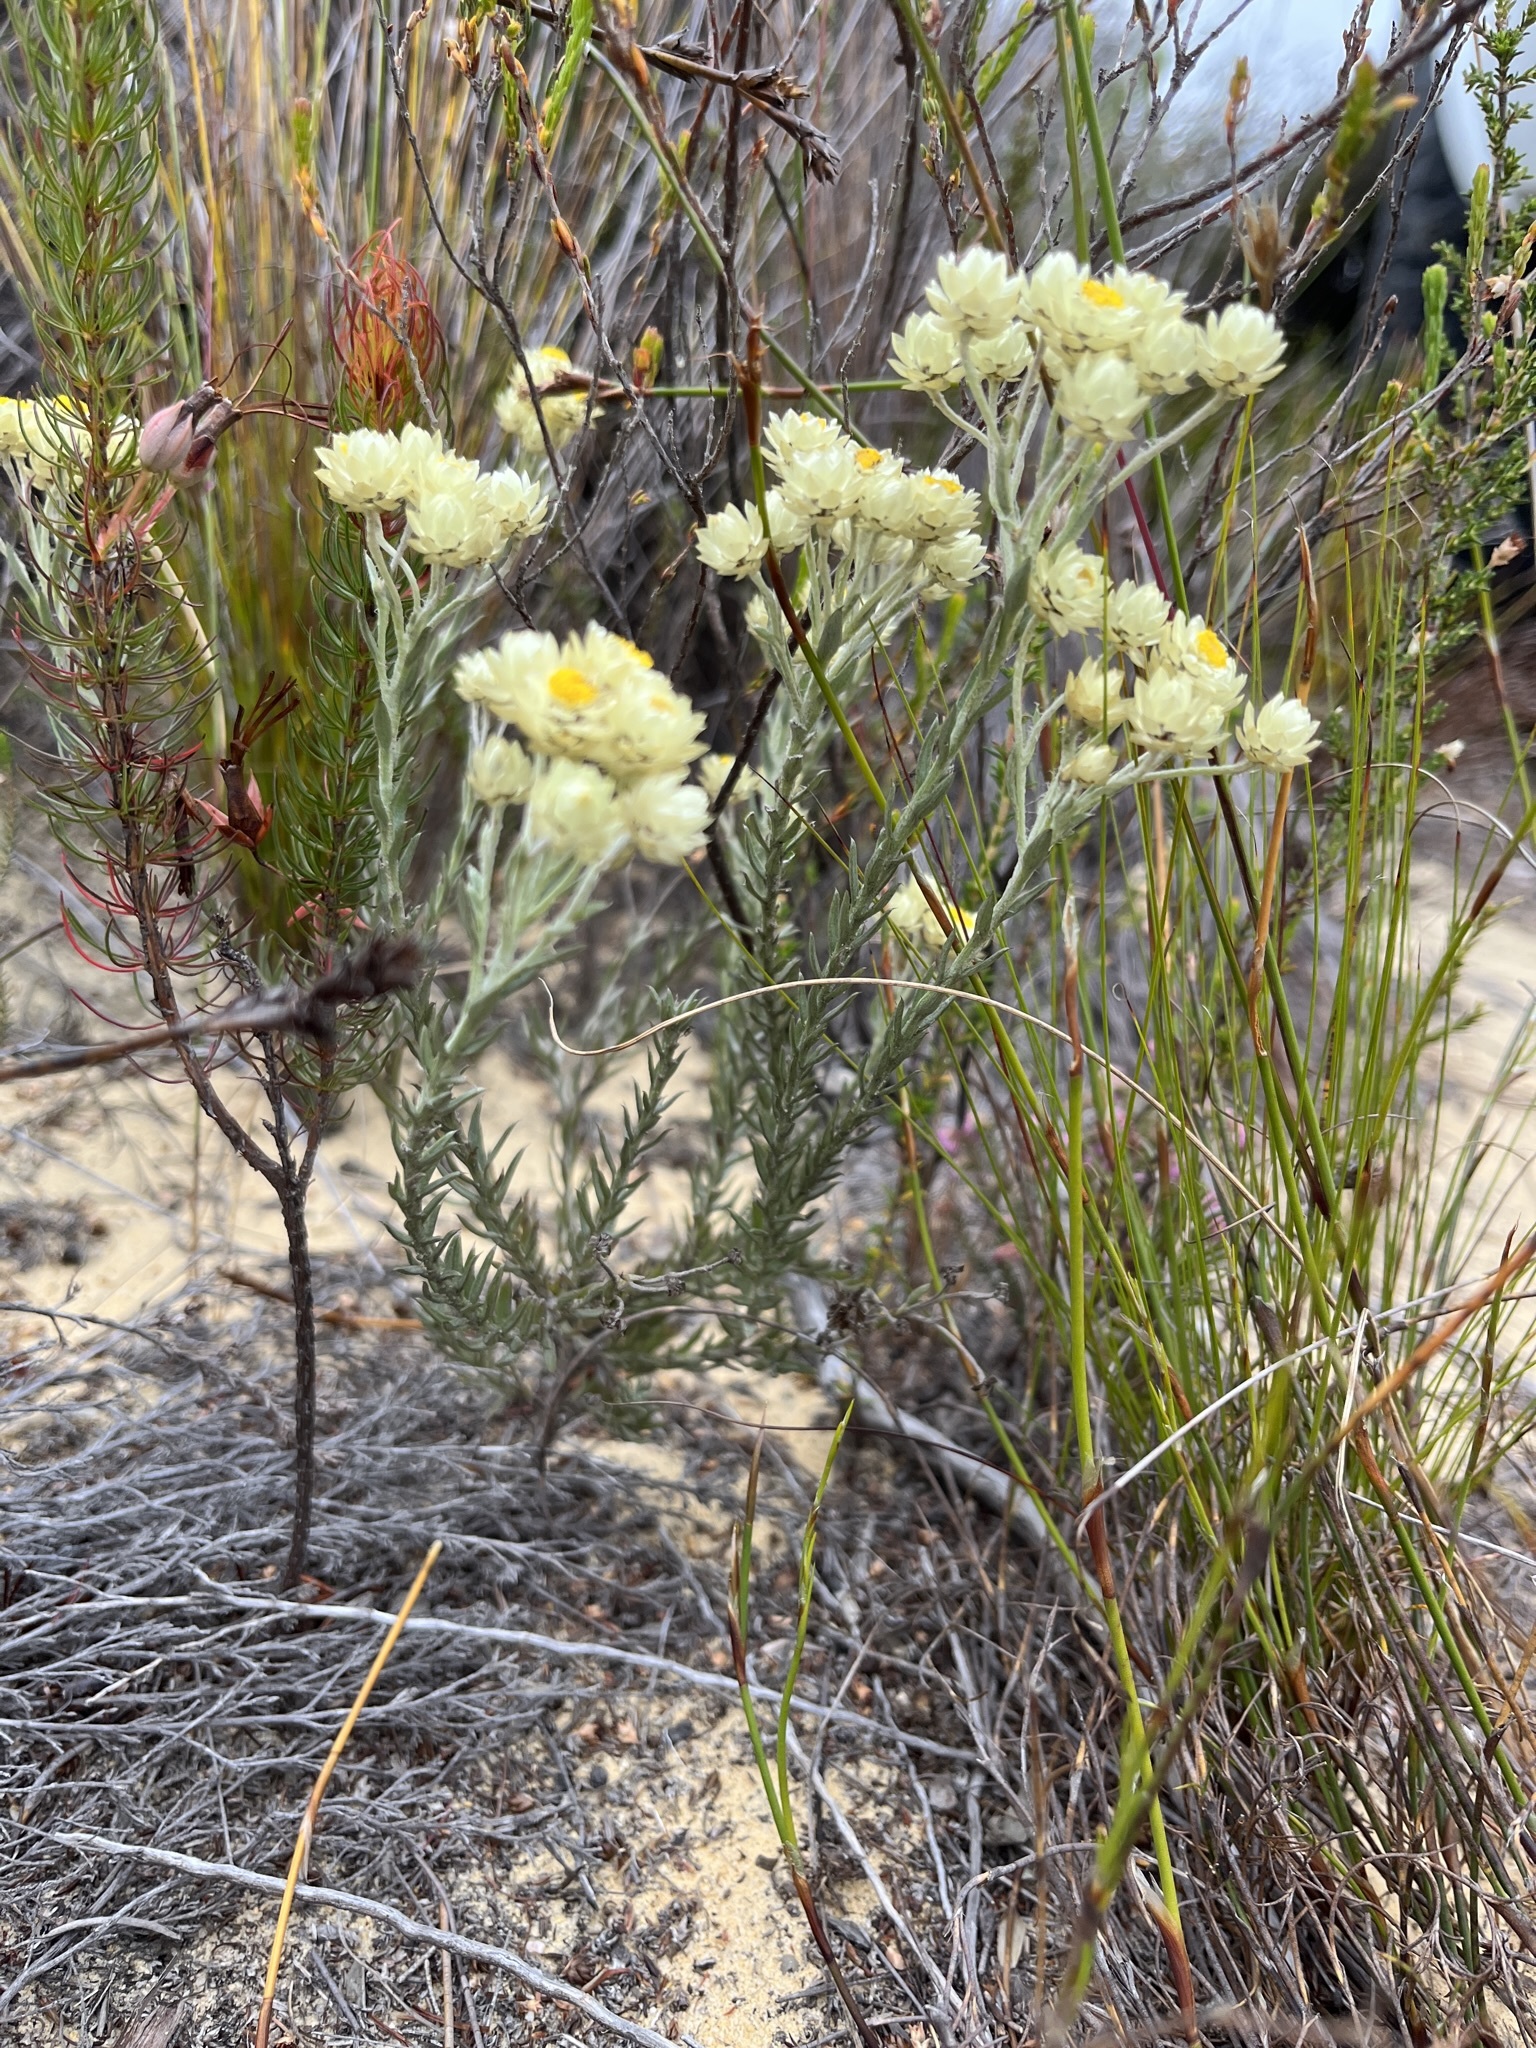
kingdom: Plantae
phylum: Tracheophyta
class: Magnoliopsida
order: Asterales
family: Asteraceae
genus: Achyranthemum
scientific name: Achyranthemum paniculatum
